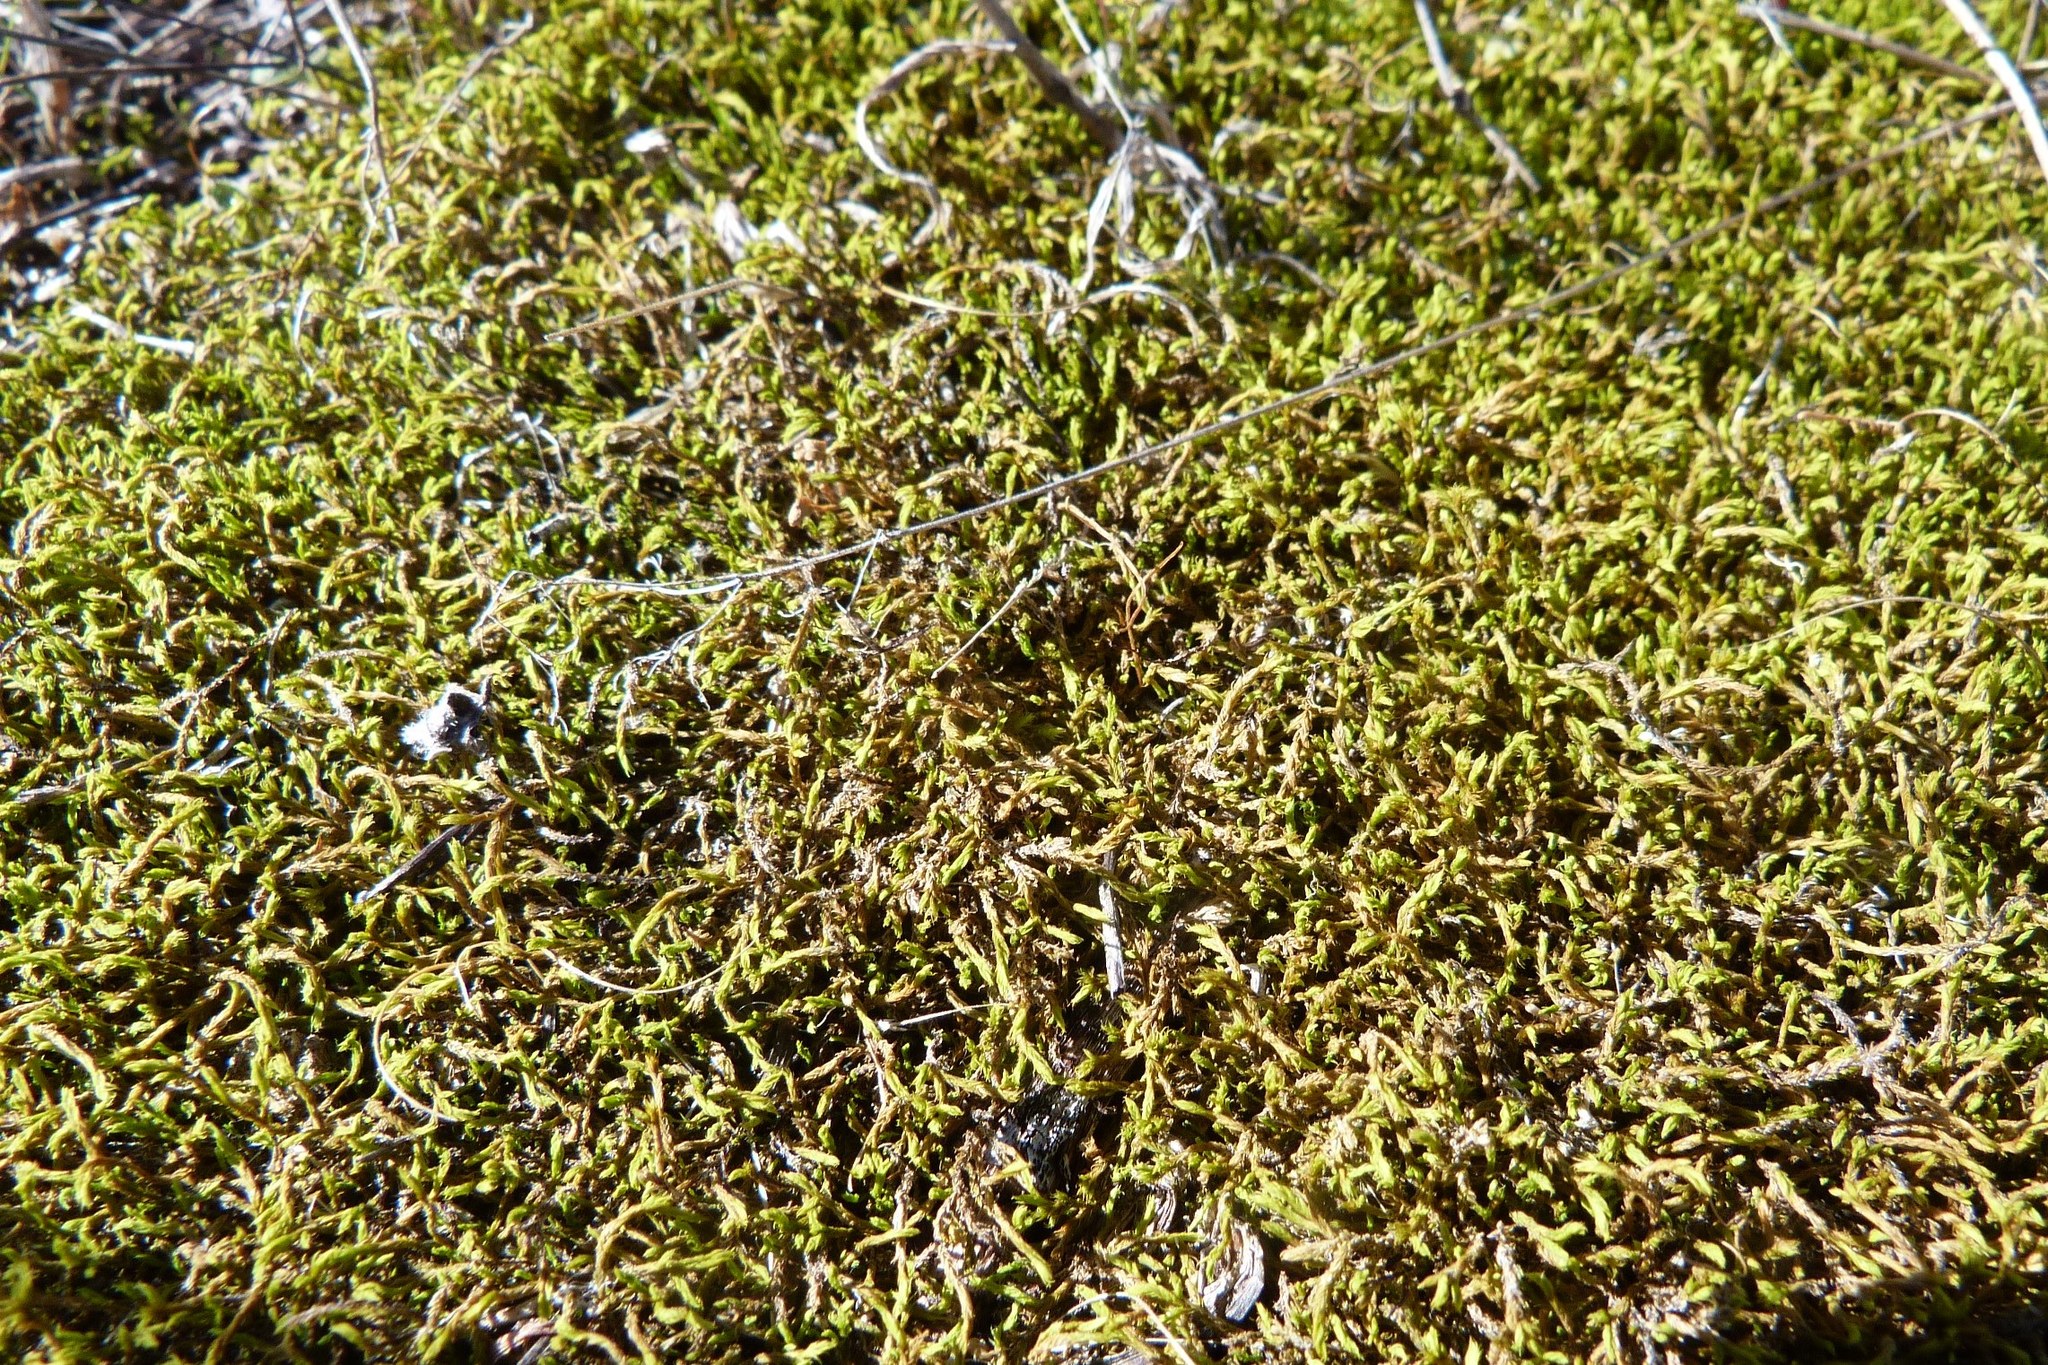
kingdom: Plantae
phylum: Bryophyta
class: Bryopsida
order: Pottiales
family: Pottiaceae
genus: Triquetrella
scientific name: Triquetrella papillata
